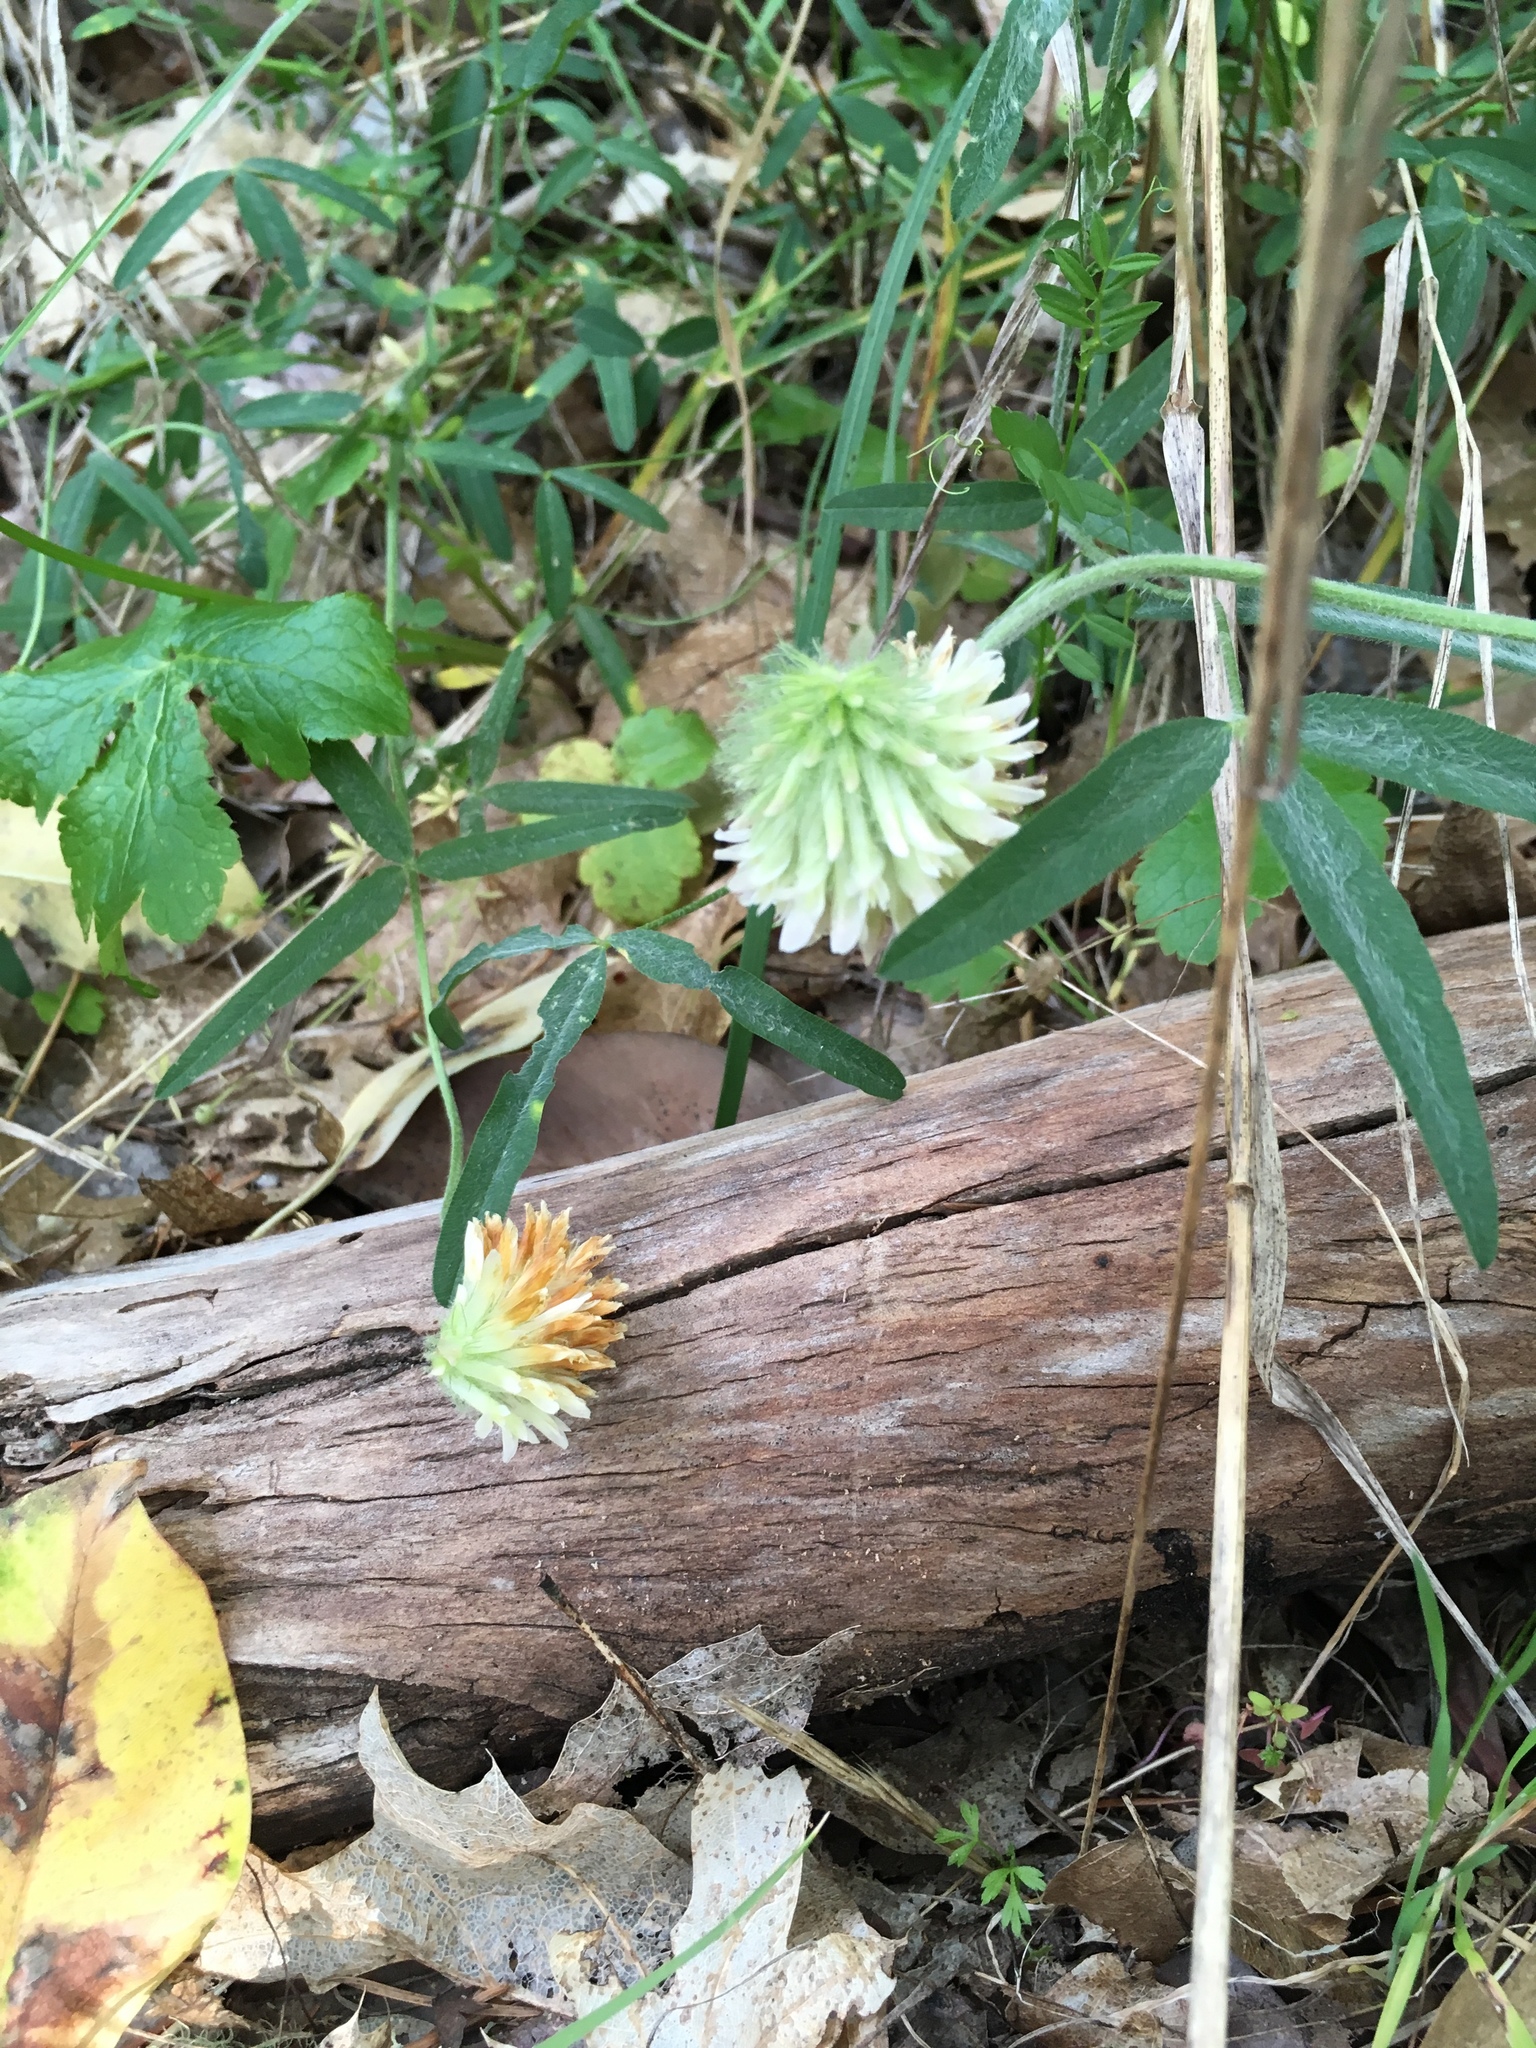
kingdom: Plantae
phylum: Tracheophyta
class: Magnoliopsida
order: Fabales
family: Fabaceae
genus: Trifolium
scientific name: Trifolium longipes
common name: Long-stalk clover
